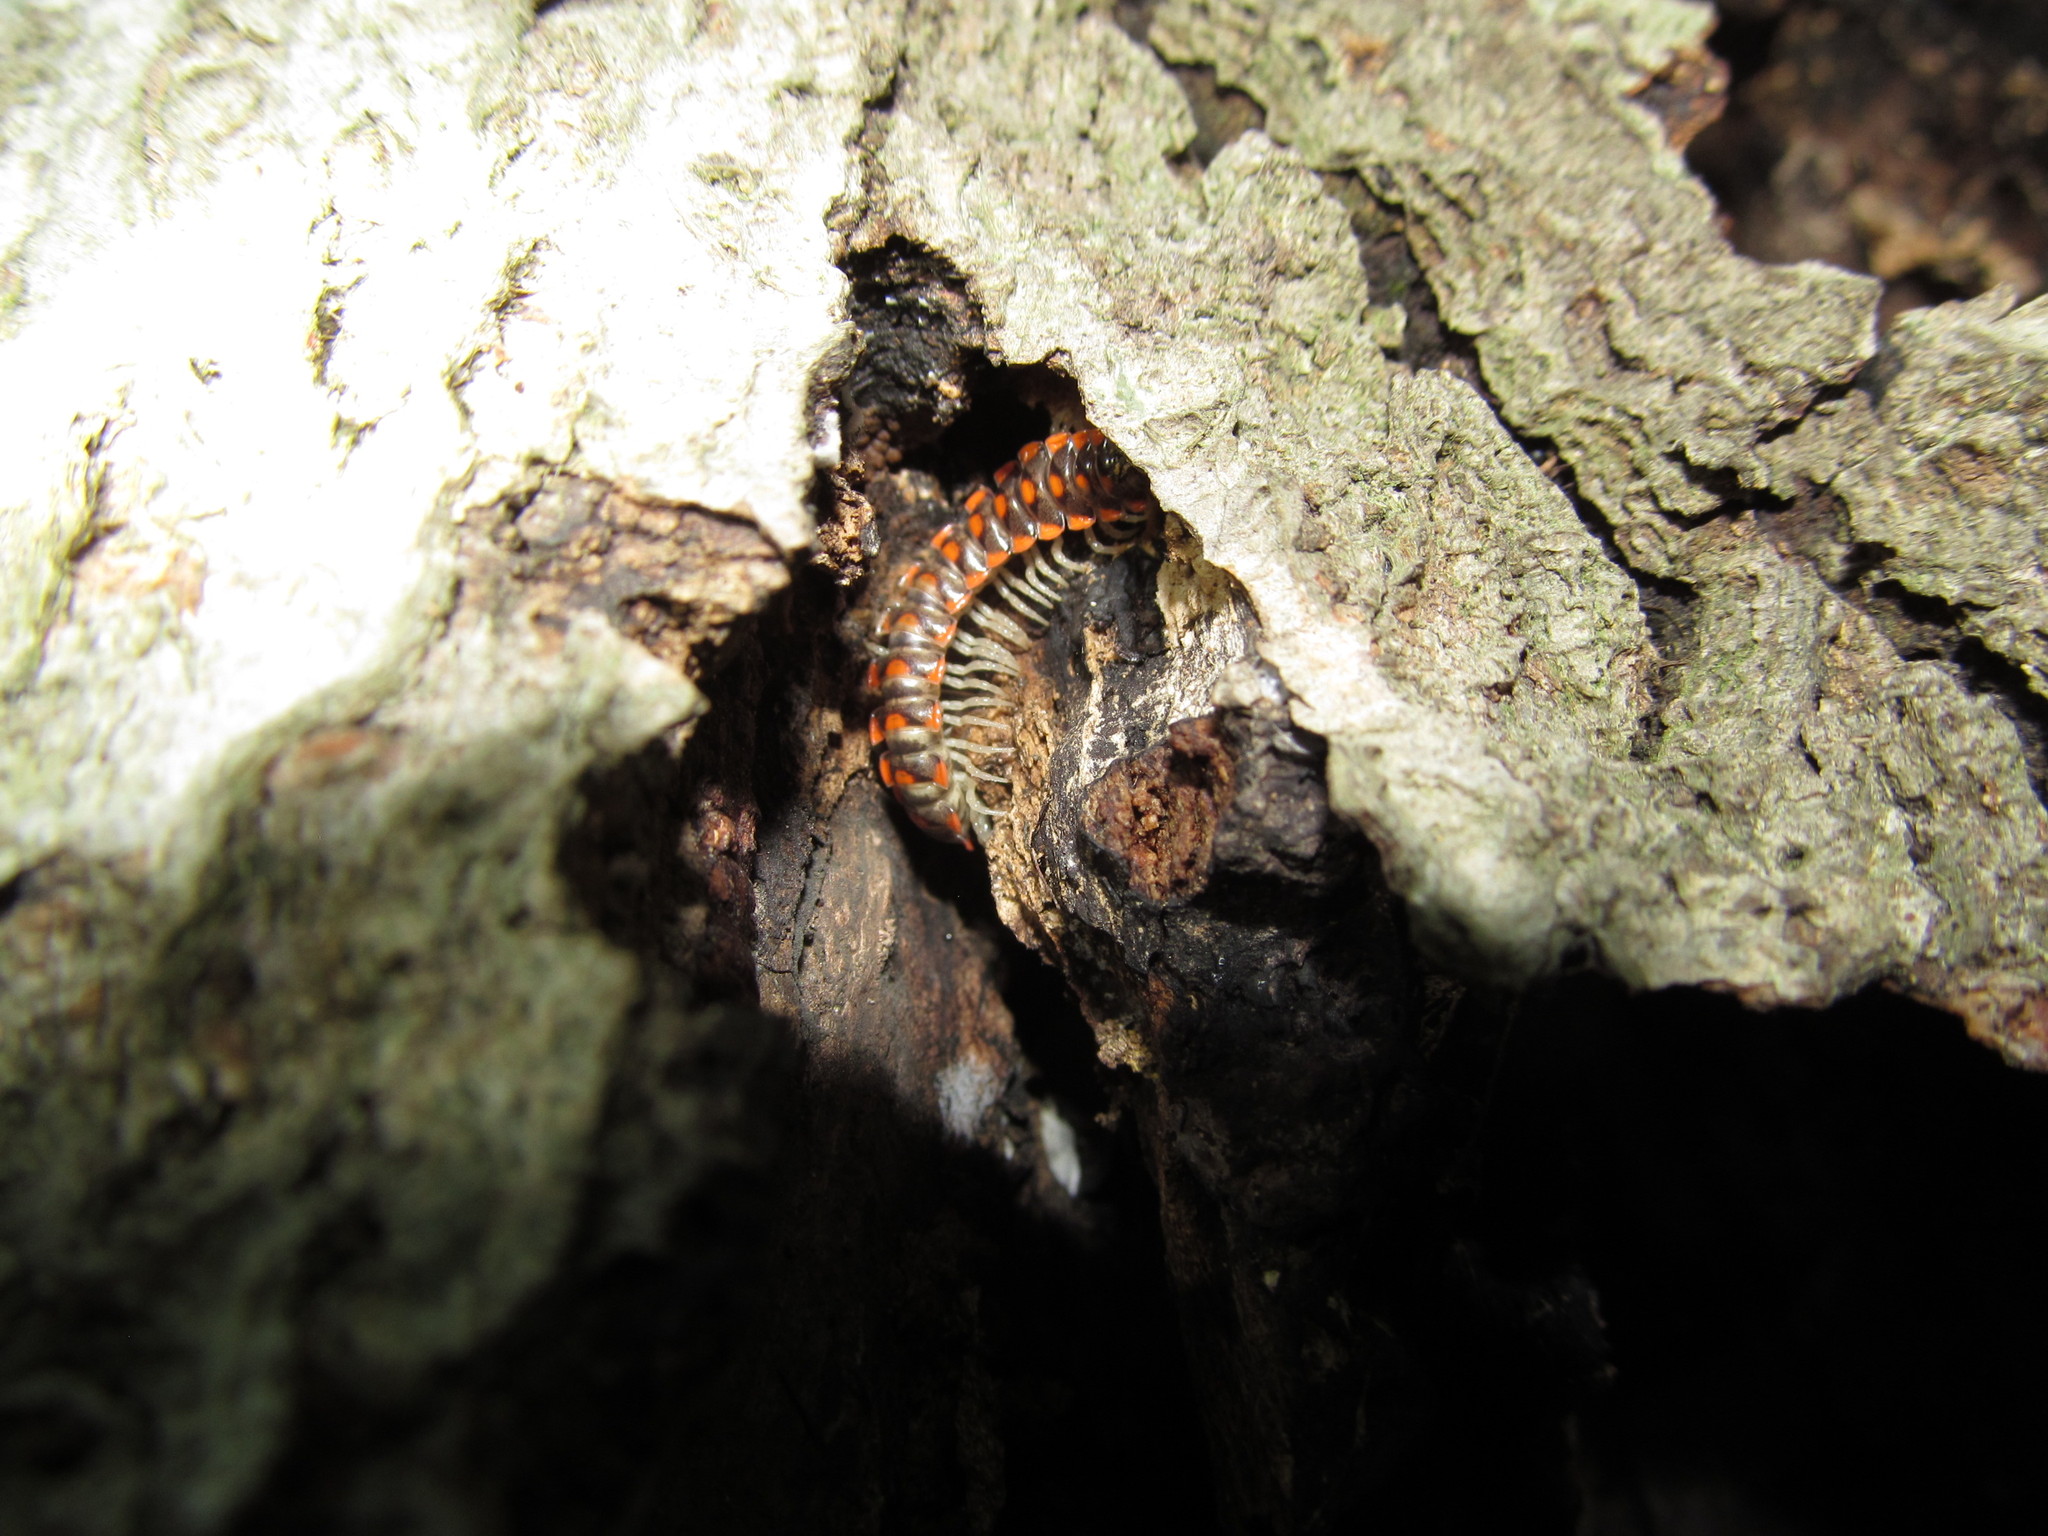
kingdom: Animalia
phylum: Arthropoda
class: Diplopoda
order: Polydesmida
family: Xystodesmidae
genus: Euryurus
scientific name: Euryurus leachii
